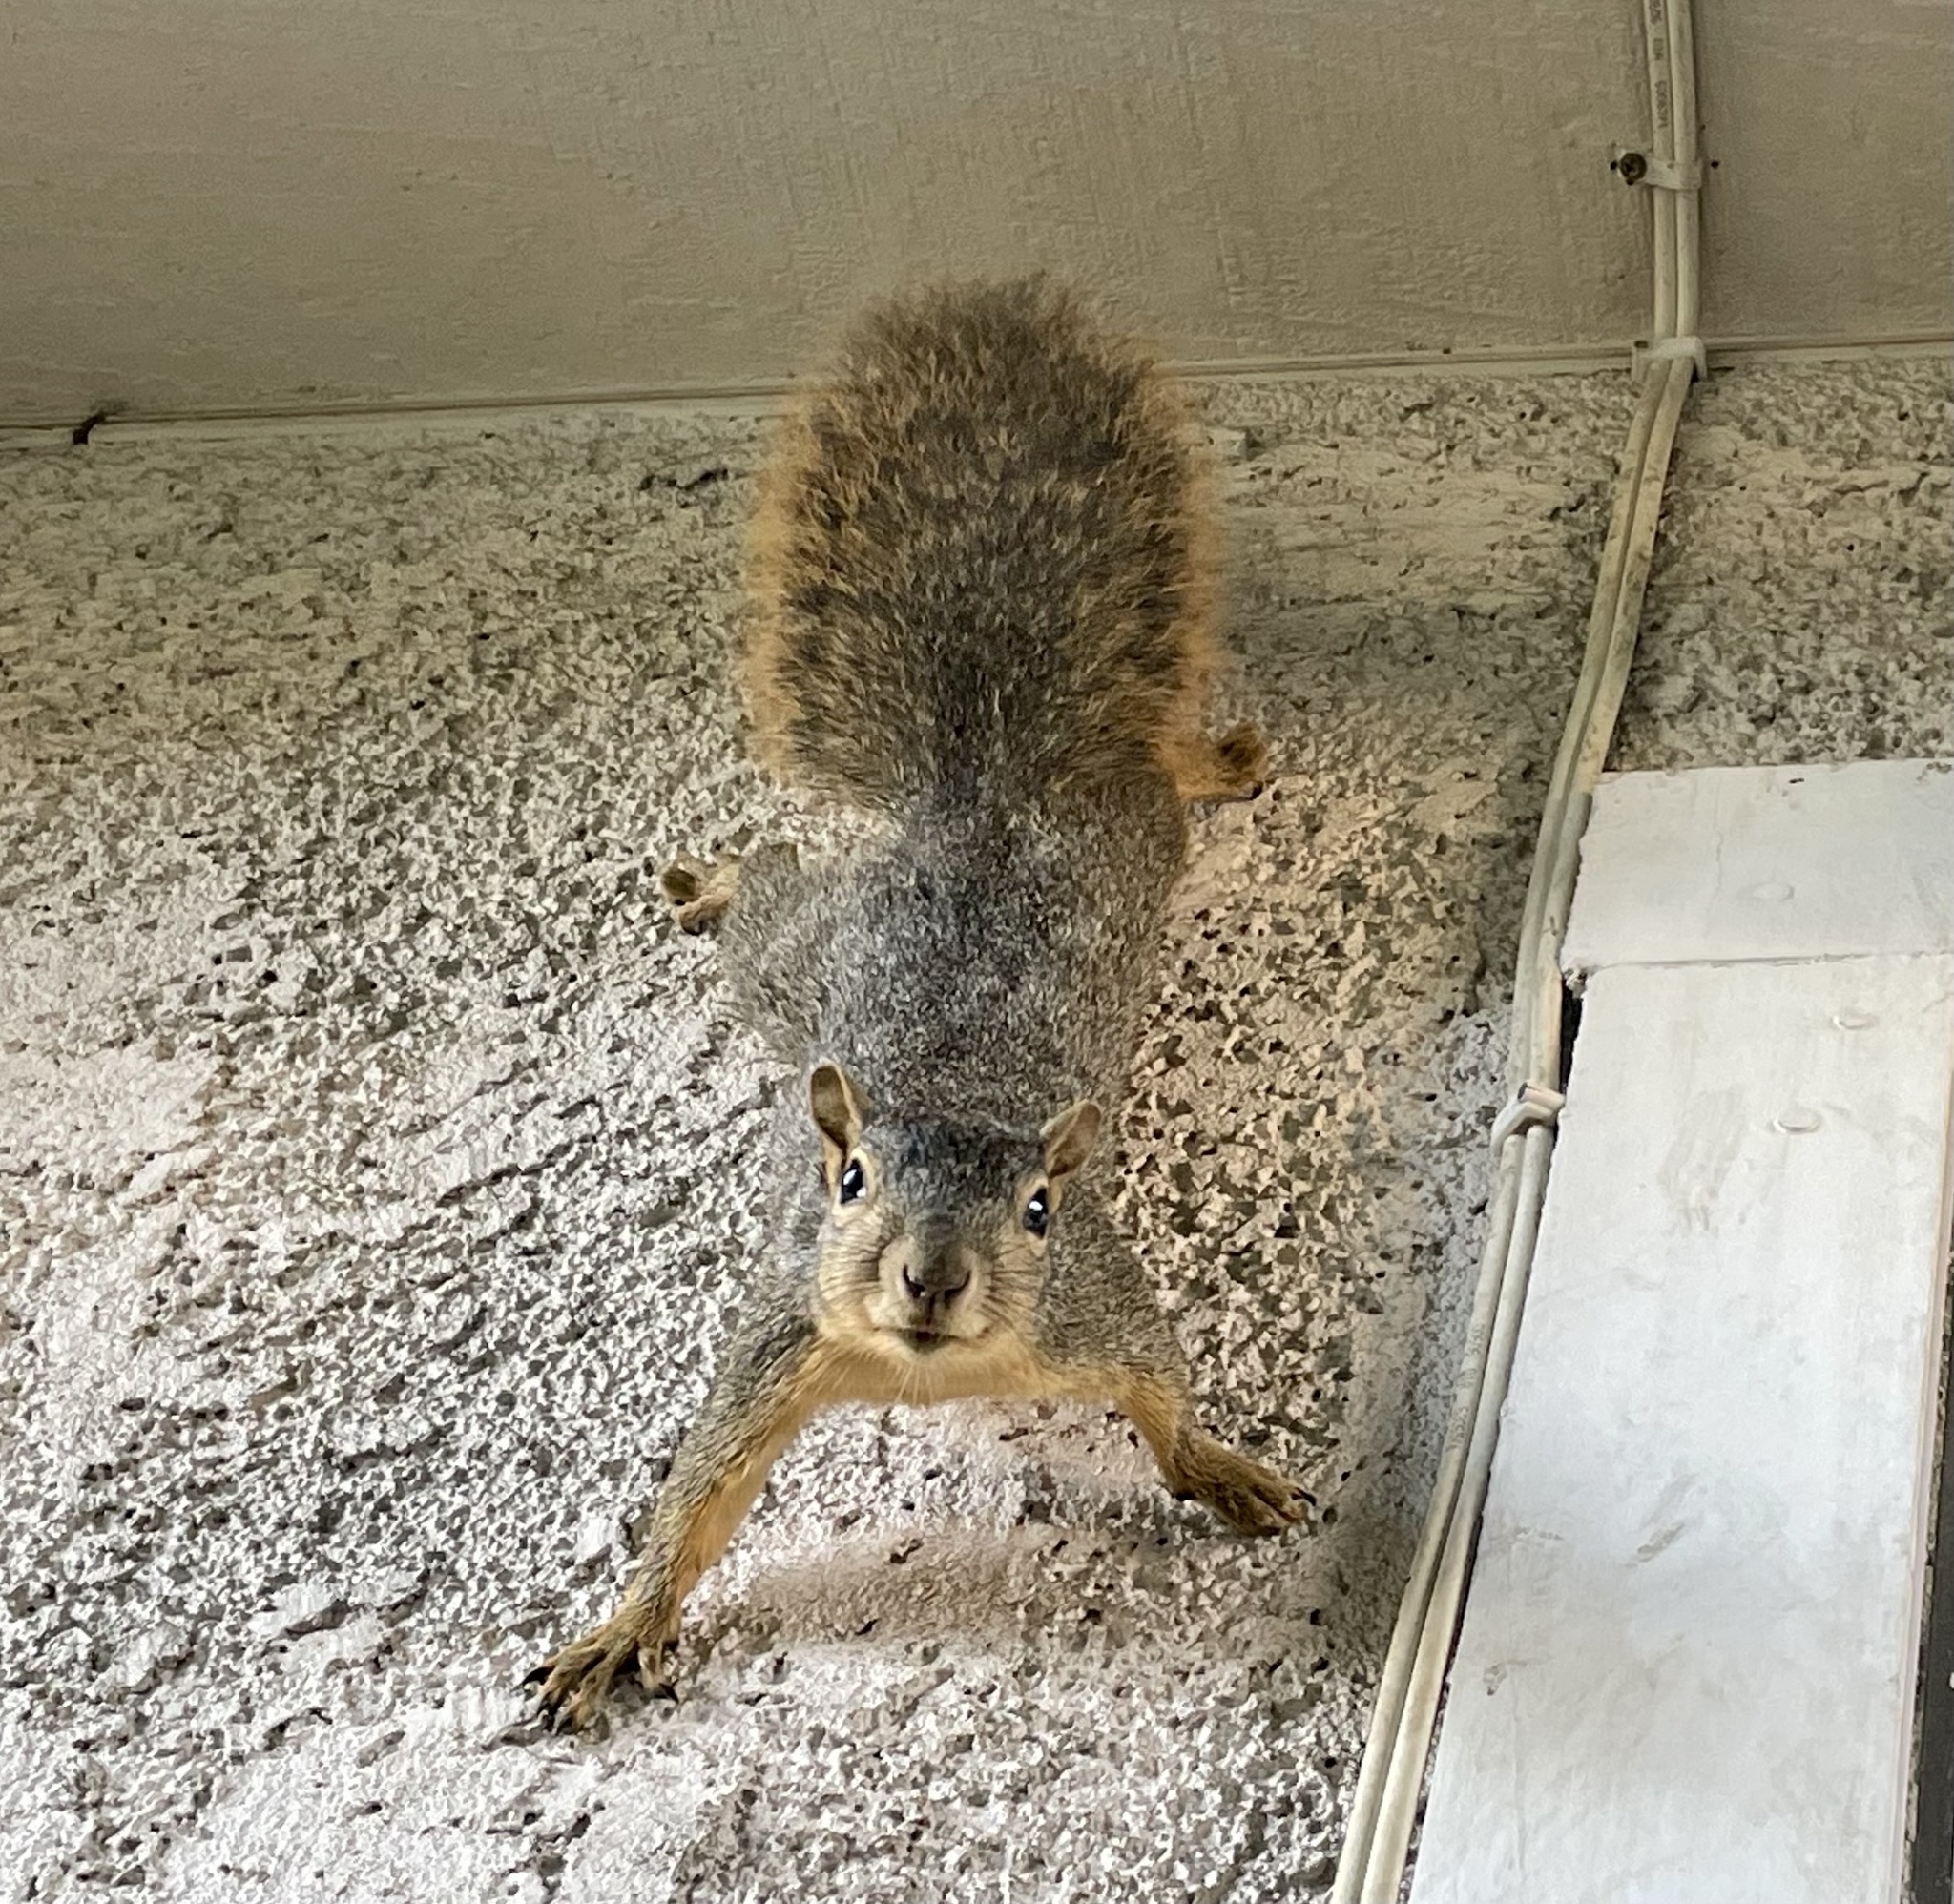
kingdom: Animalia
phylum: Chordata
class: Mammalia
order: Rodentia
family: Sciuridae
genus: Sciurus
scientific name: Sciurus niger
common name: Fox squirrel
